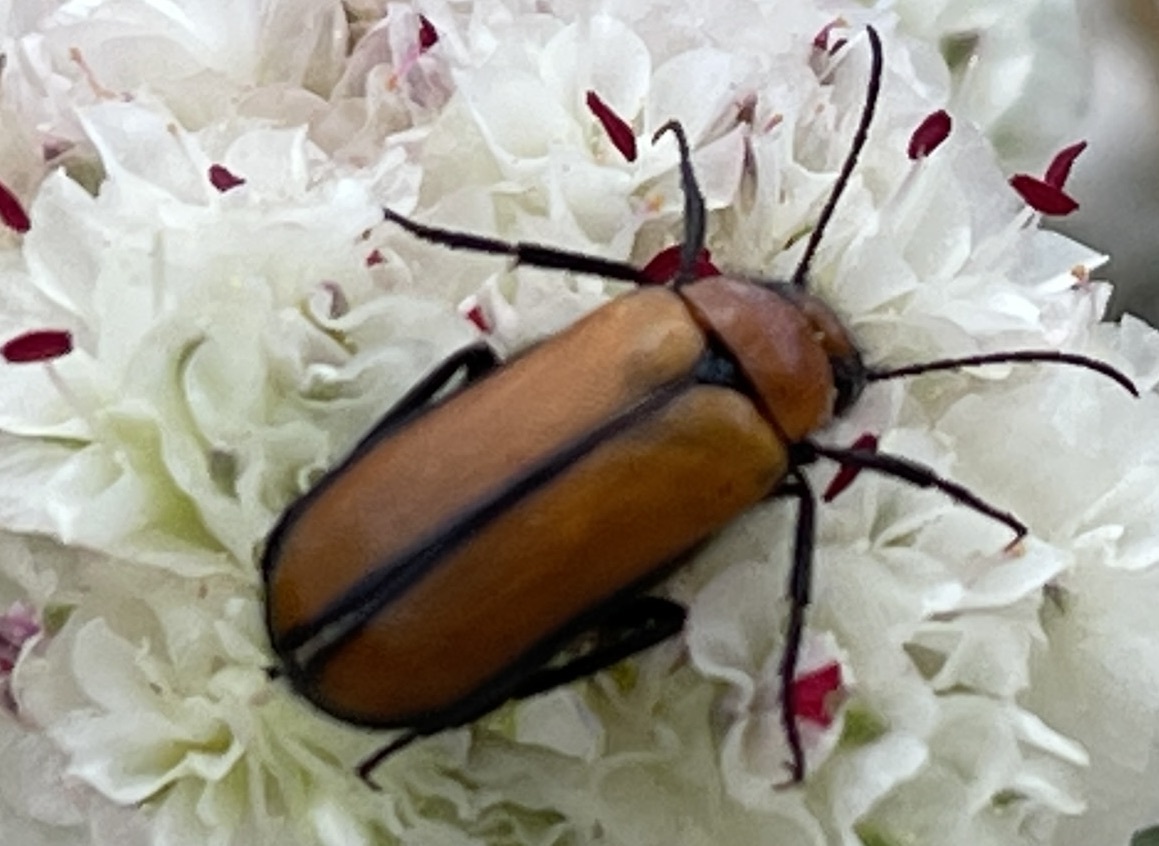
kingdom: Animalia
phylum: Arthropoda
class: Insecta
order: Coleoptera
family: Meloidae
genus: Nemognatha
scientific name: Nemognatha scutellaris
